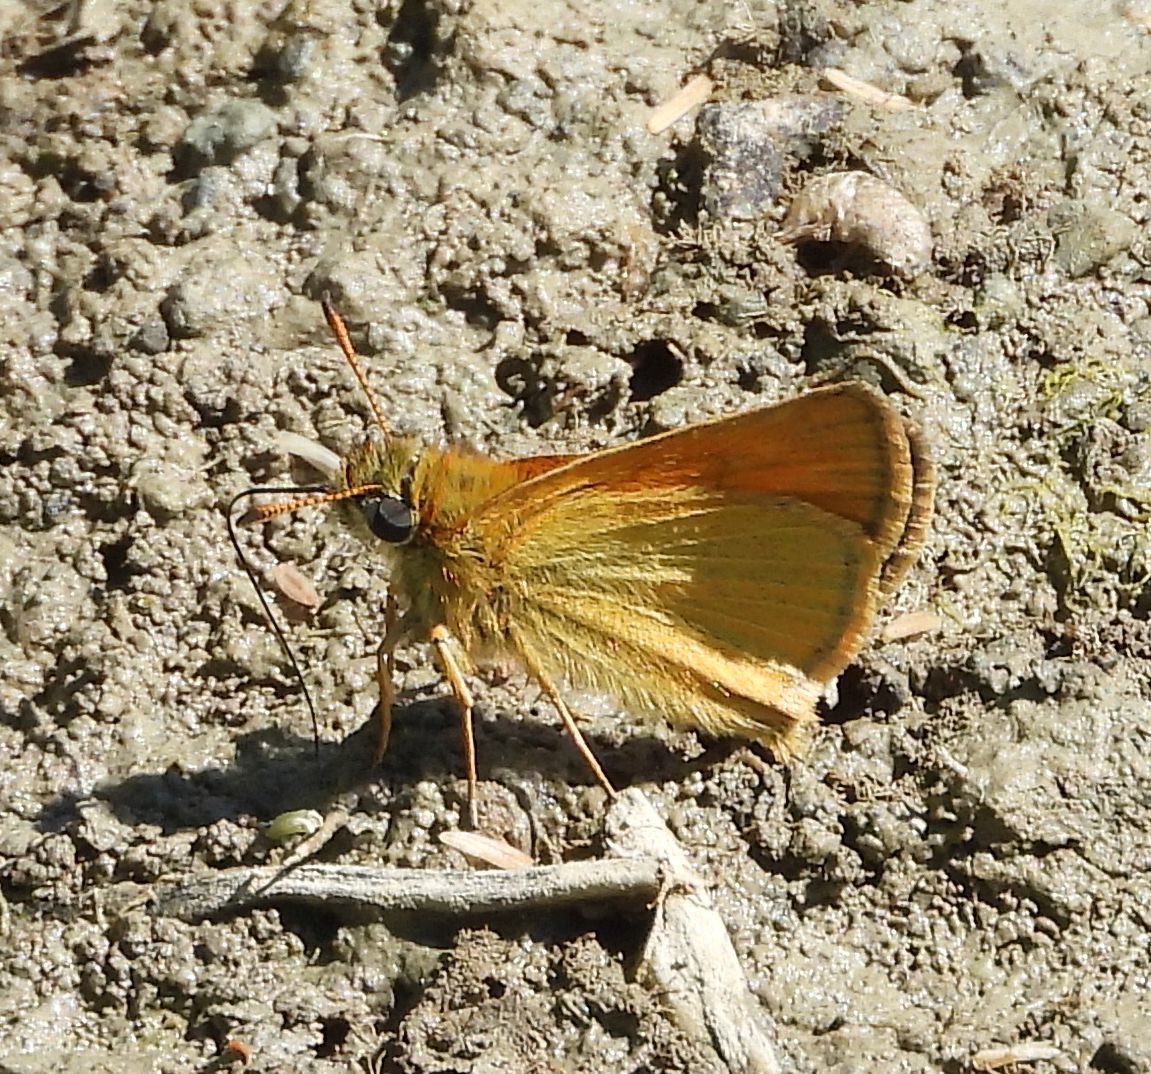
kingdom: Animalia
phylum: Arthropoda
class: Insecta
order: Lepidoptera
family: Hesperiidae
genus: Thymelicus
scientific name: Thymelicus lineola
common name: Essex skipper
